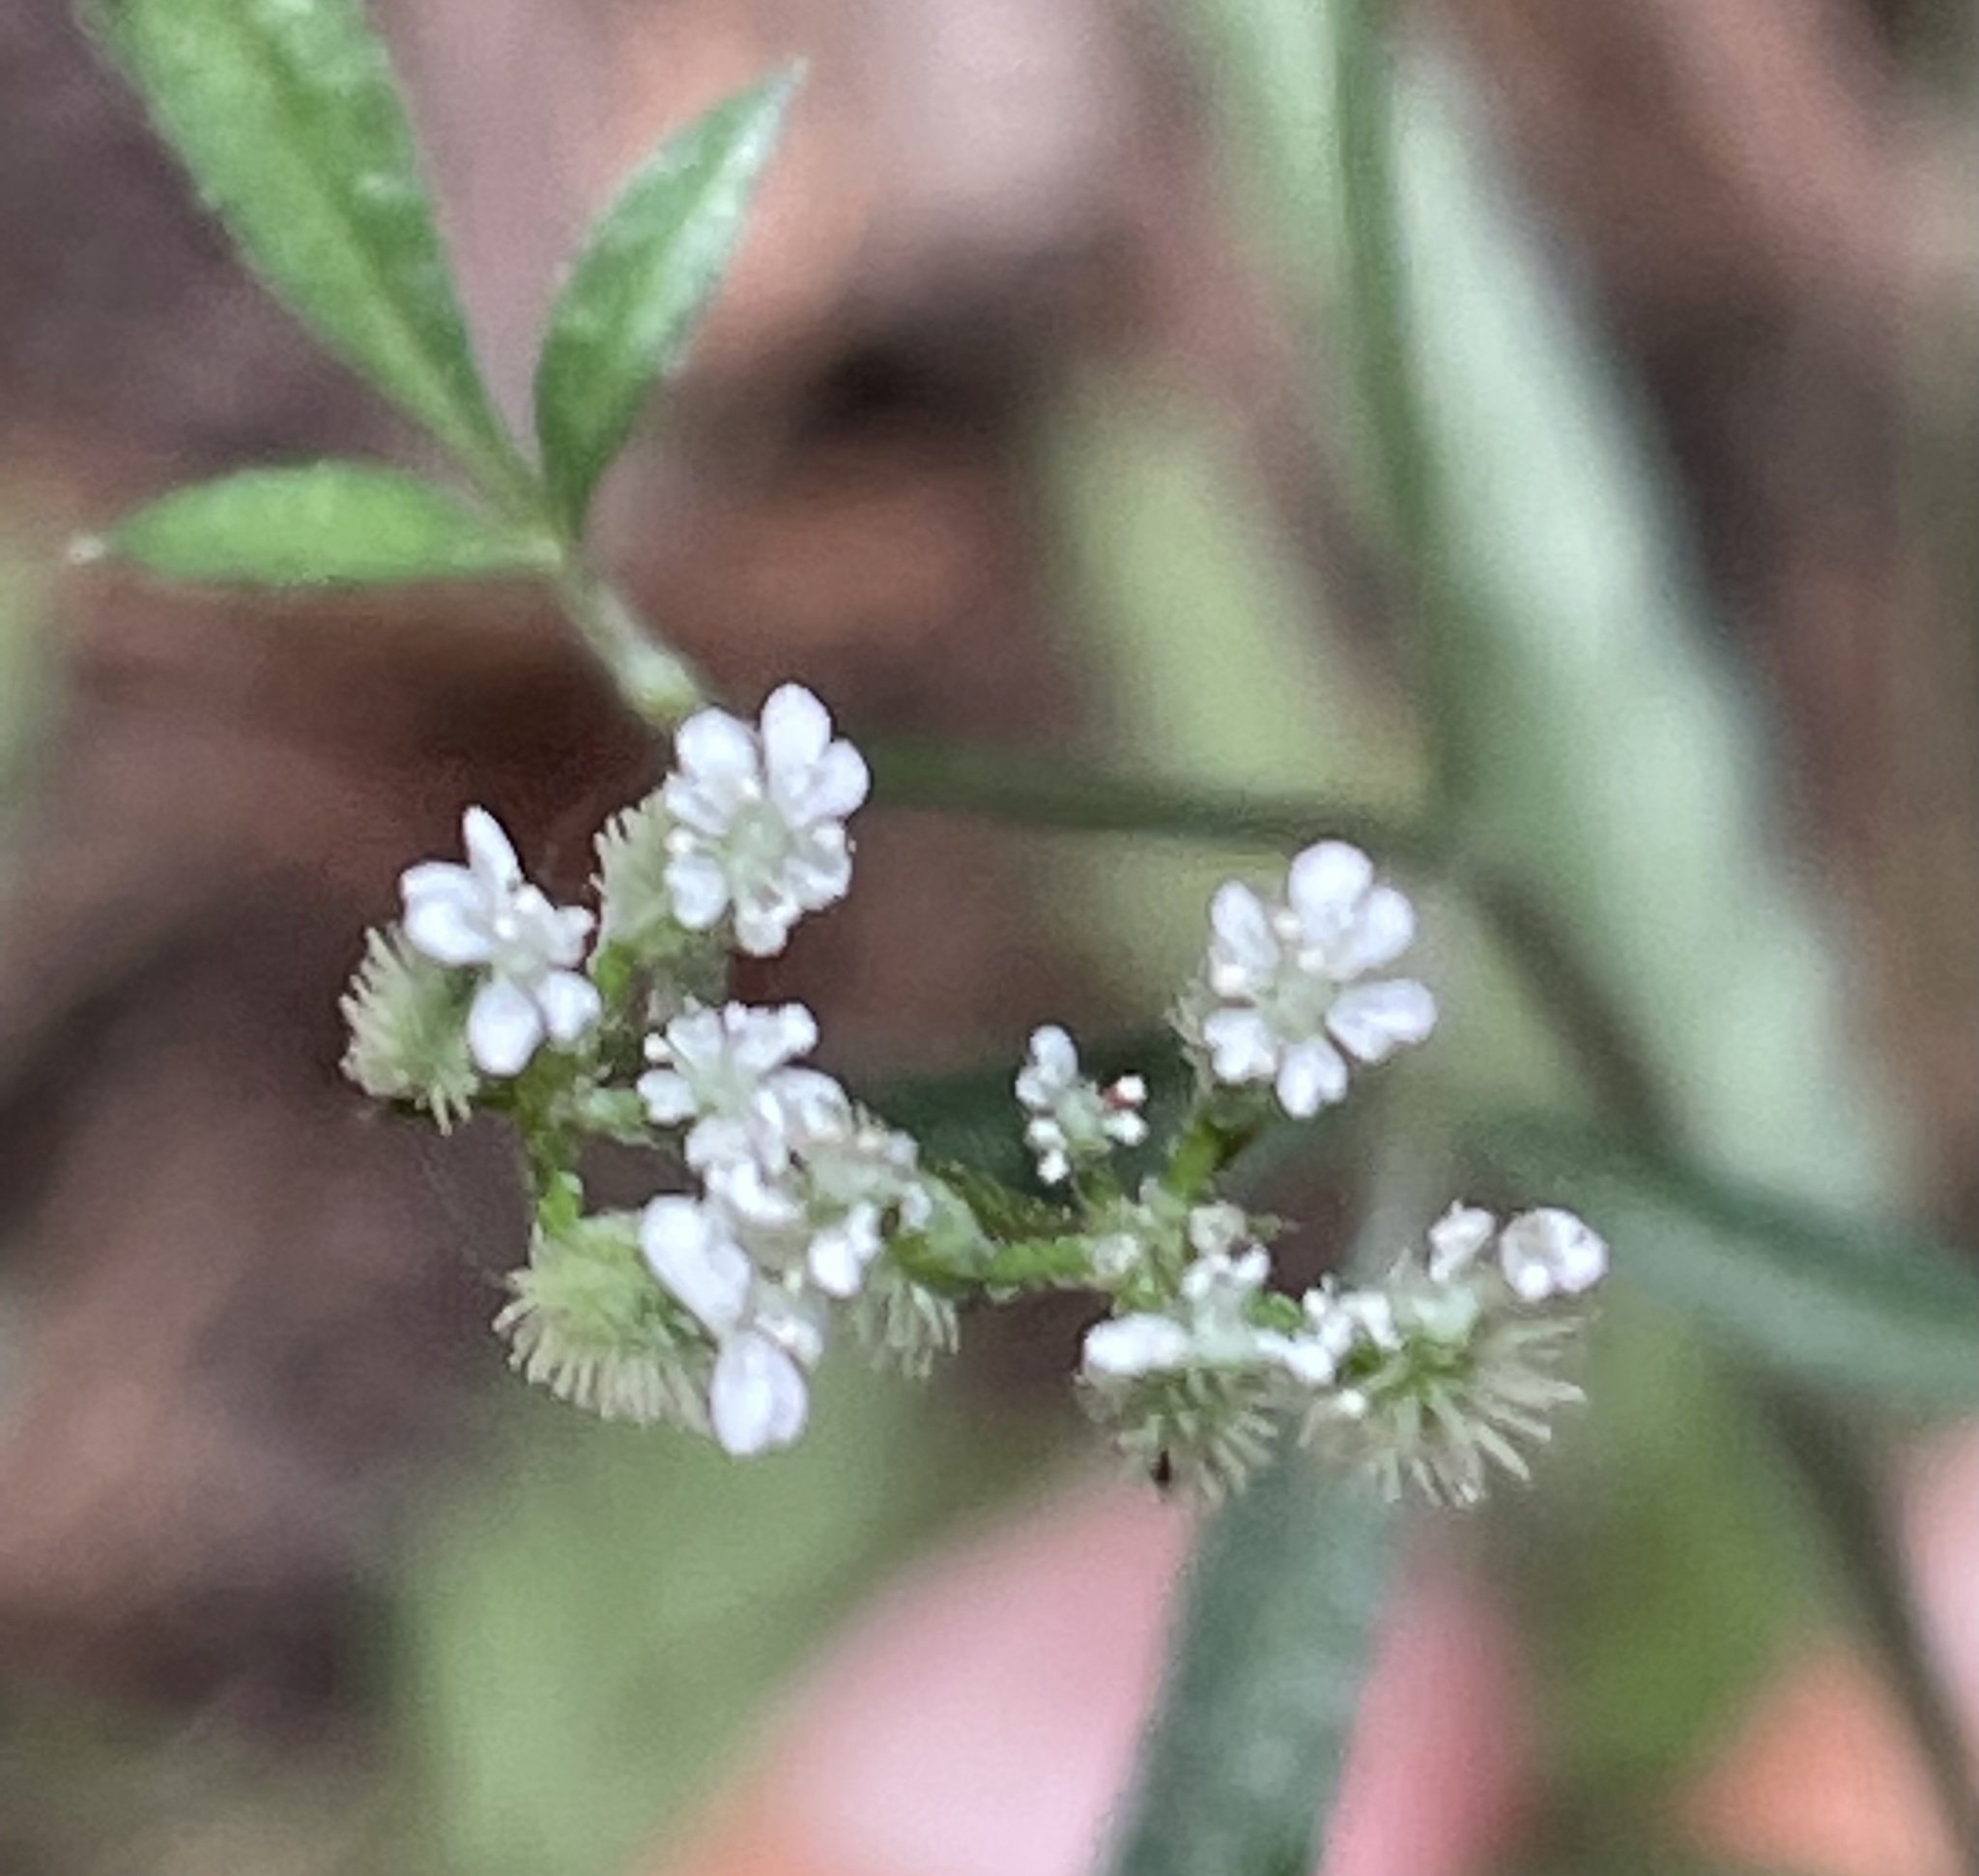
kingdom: Plantae
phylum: Tracheophyta
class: Magnoliopsida
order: Apiales
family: Apiaceae
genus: Torilis
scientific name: Torilis arvensis
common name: Spreading hedge-parsley
